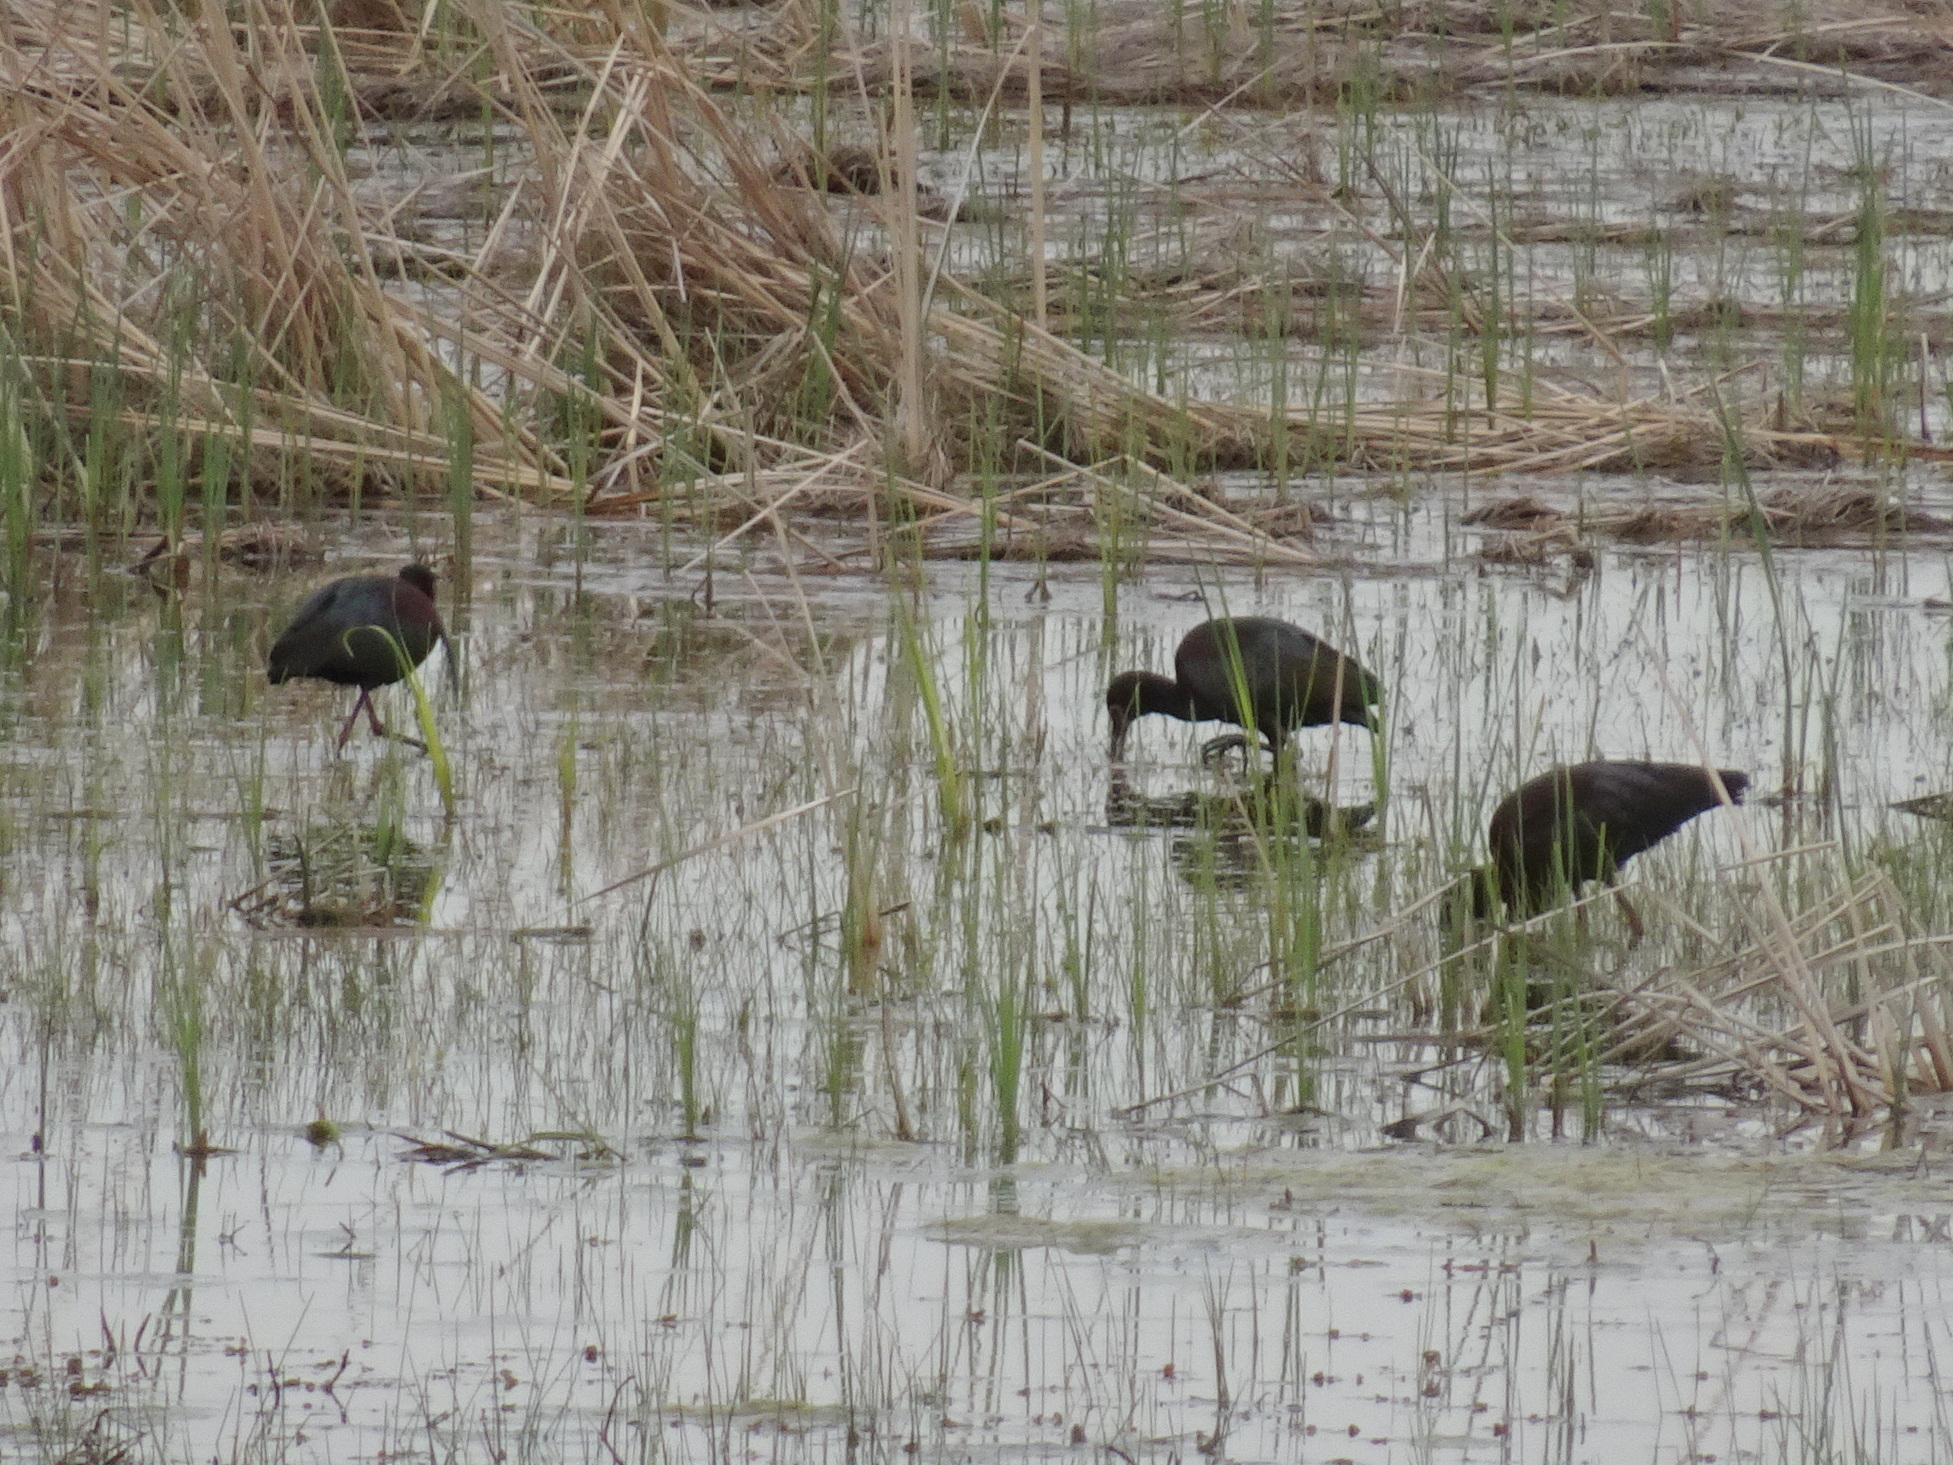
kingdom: Animalia
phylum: Chordata
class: Aves
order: Pelecaniformes
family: Threskiornithidae
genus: Plegadis
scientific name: Plegadis chihi
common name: White-faced ibis
